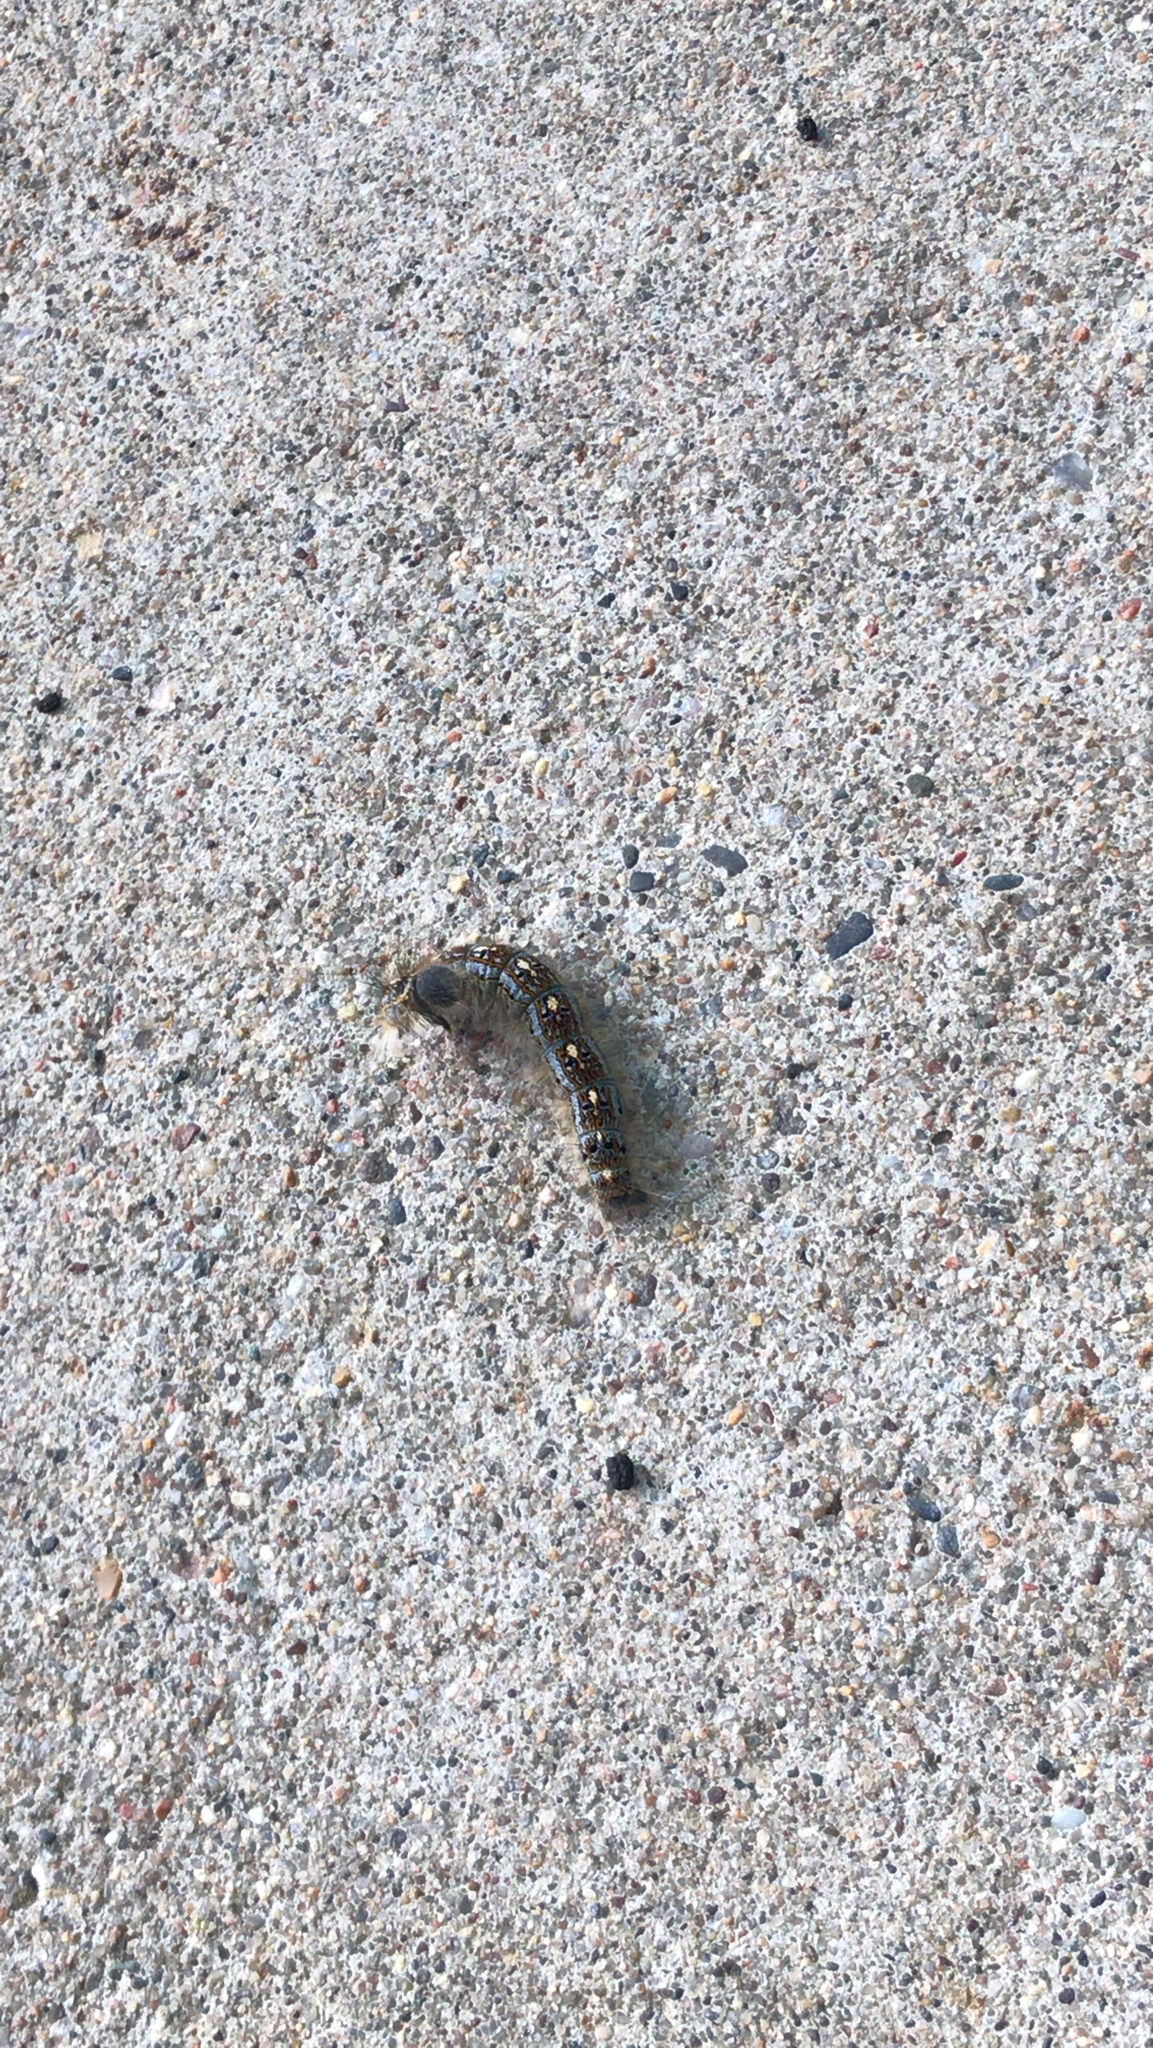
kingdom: Animalia
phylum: Arthropoda
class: Insecta
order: Lepidoptera
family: Lasiocampidae
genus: Malacosoma
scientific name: Malacosoma disstria
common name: Forest tent caterpillar
